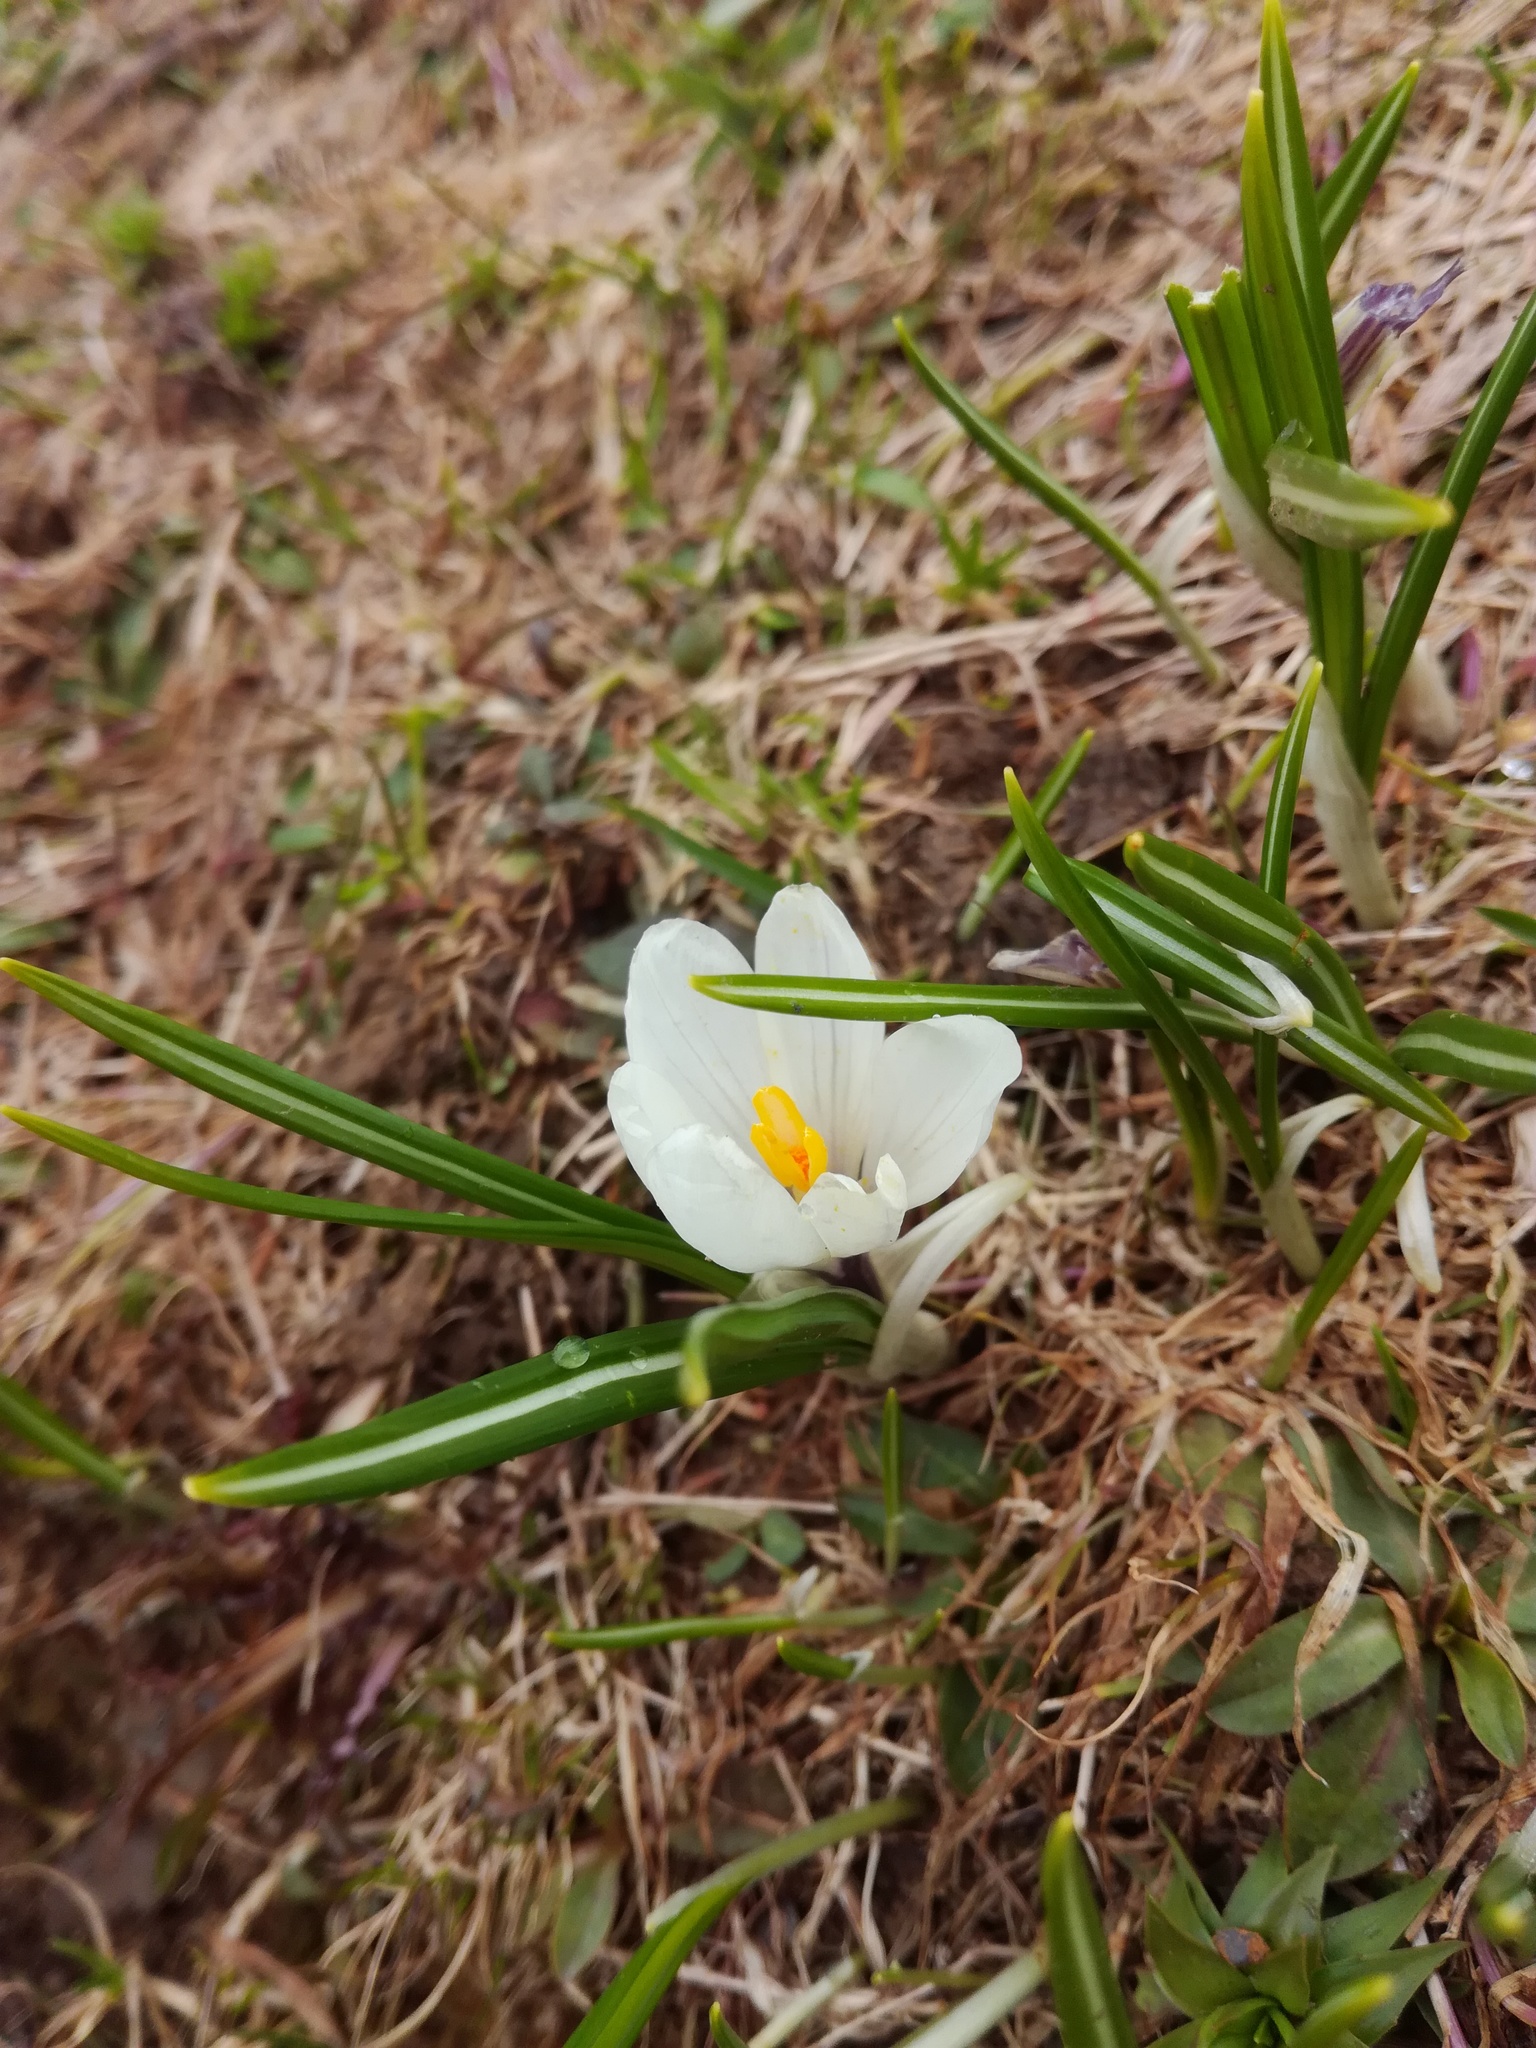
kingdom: Plantae
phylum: Tracheophyta
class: Liliopsida
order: Asparagales
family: Iridaceae
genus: Crocus
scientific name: Crocus vernus
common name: Spring crocus
